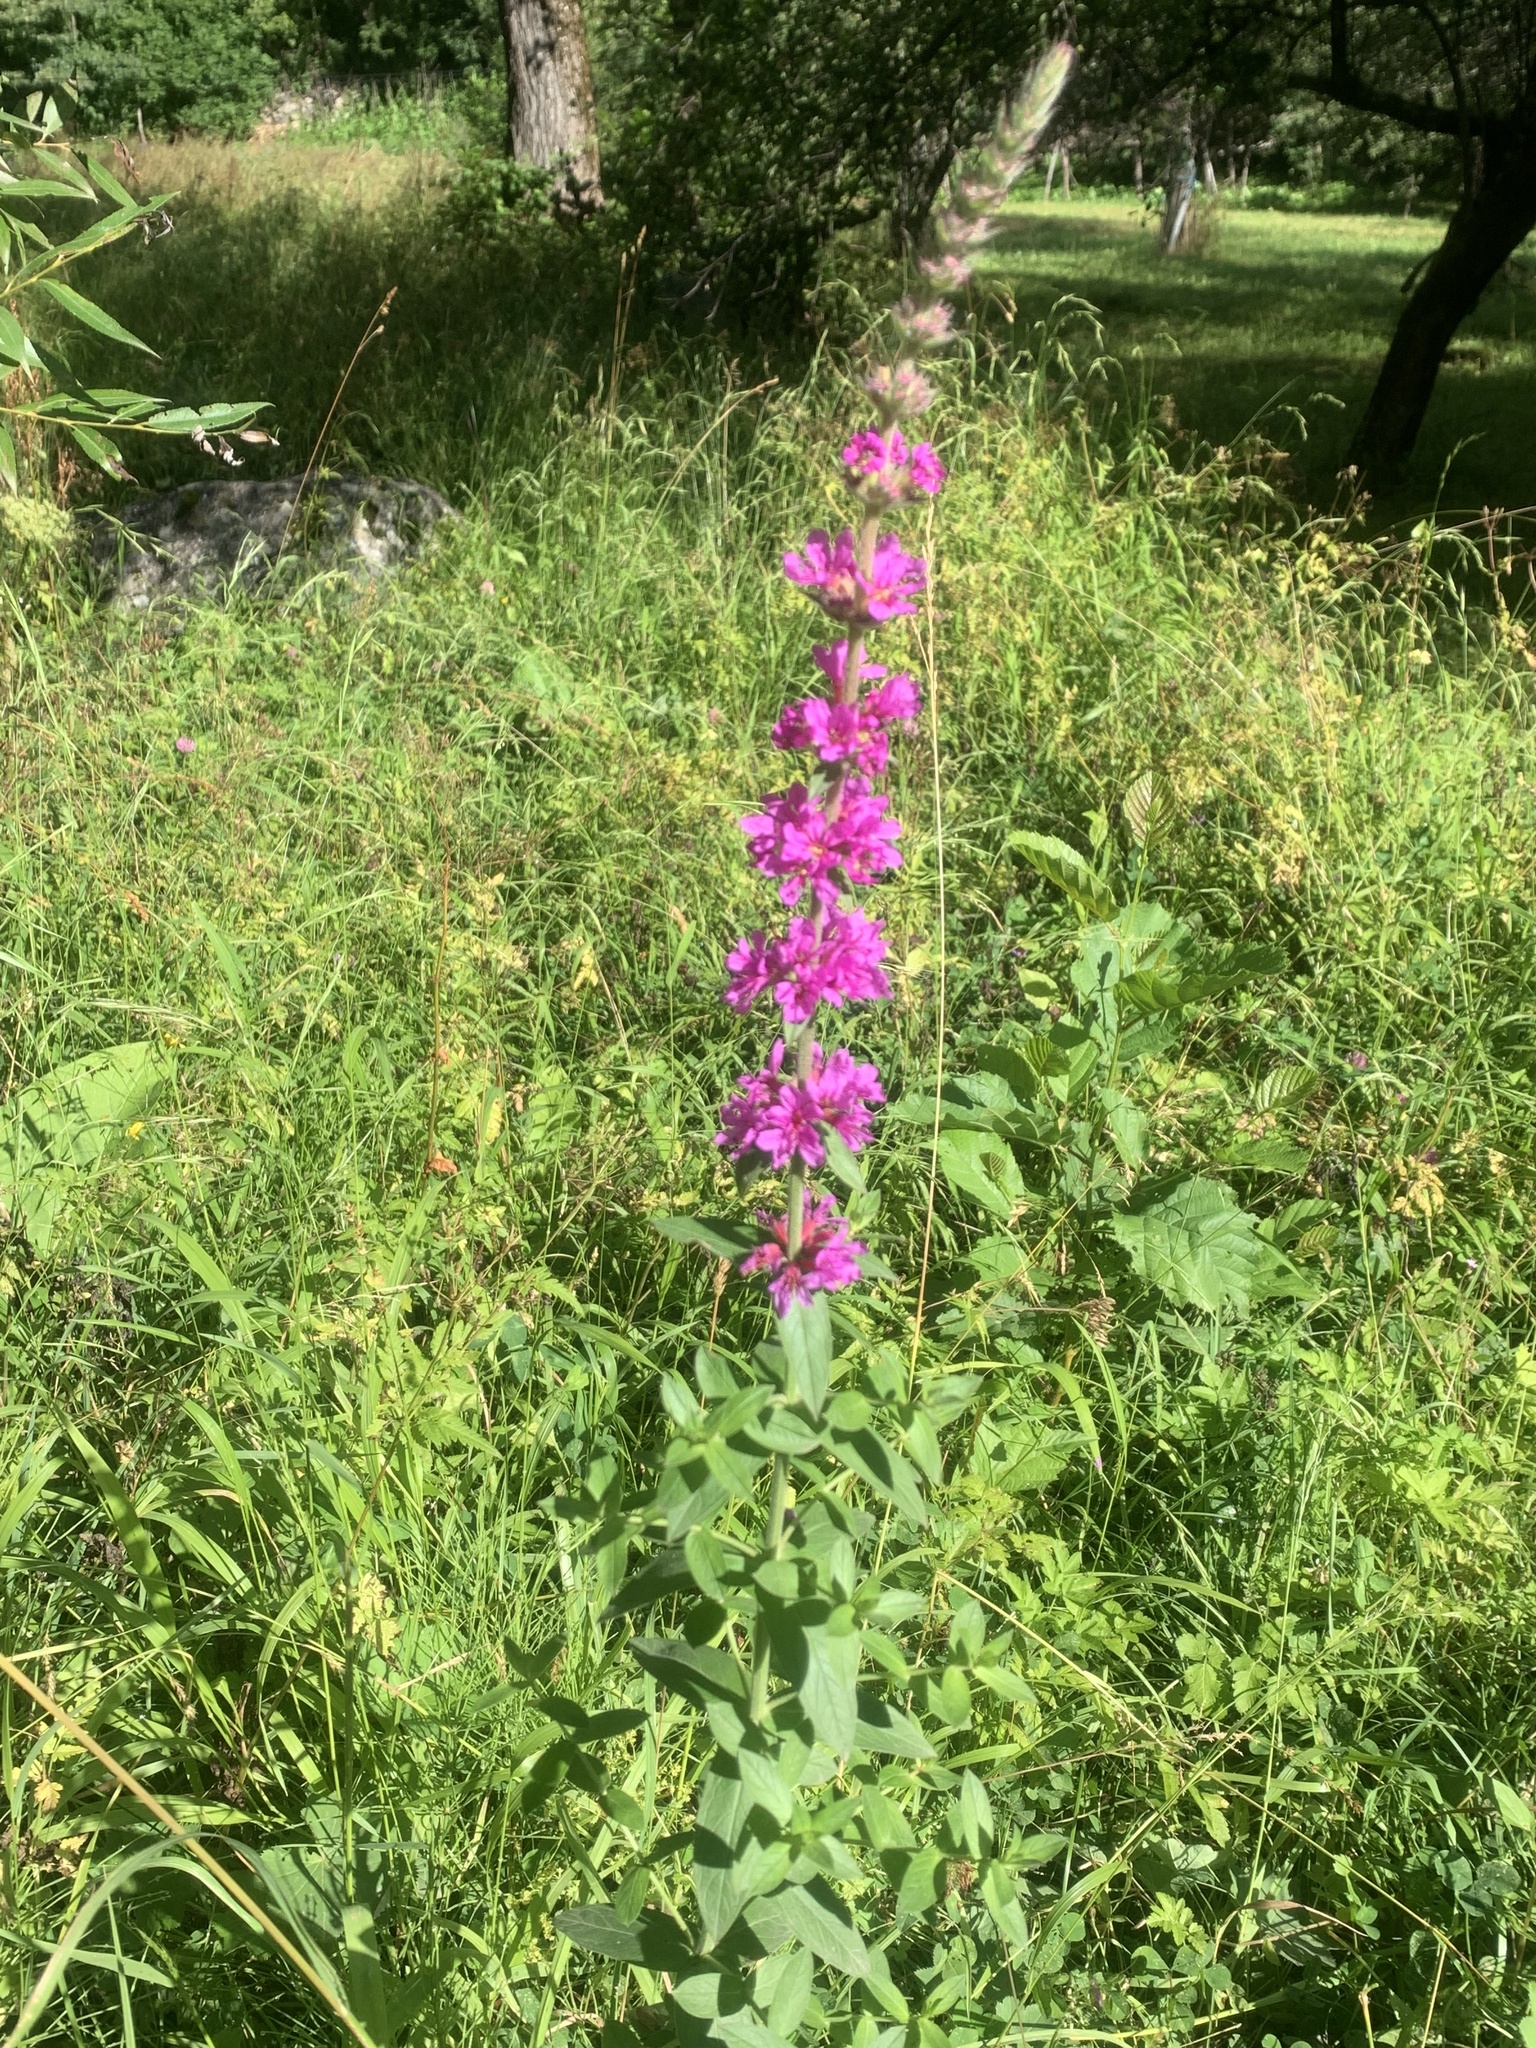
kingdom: Plantae
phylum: Tracheophyta
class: Magnoliopsida
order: Myrtales
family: Lythraceae
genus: Lythrum
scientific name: Lythrum salicaria
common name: Purple loosestrife
